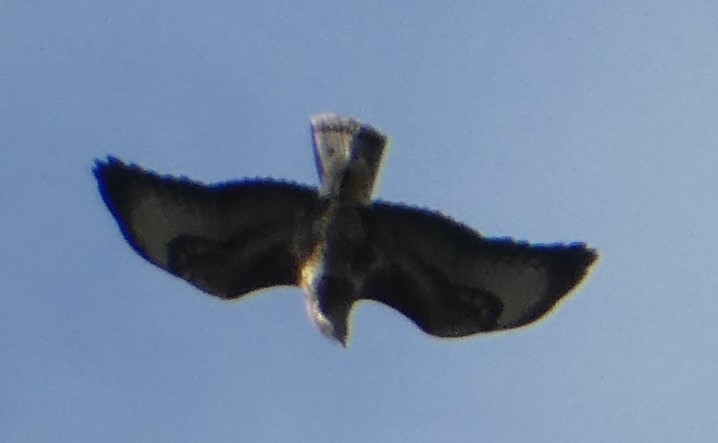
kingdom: Animalia
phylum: Chordata
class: Aves
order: Accipitriformes
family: Accipitridae
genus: Buteo
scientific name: Buteo buteo
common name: Common buzzard
